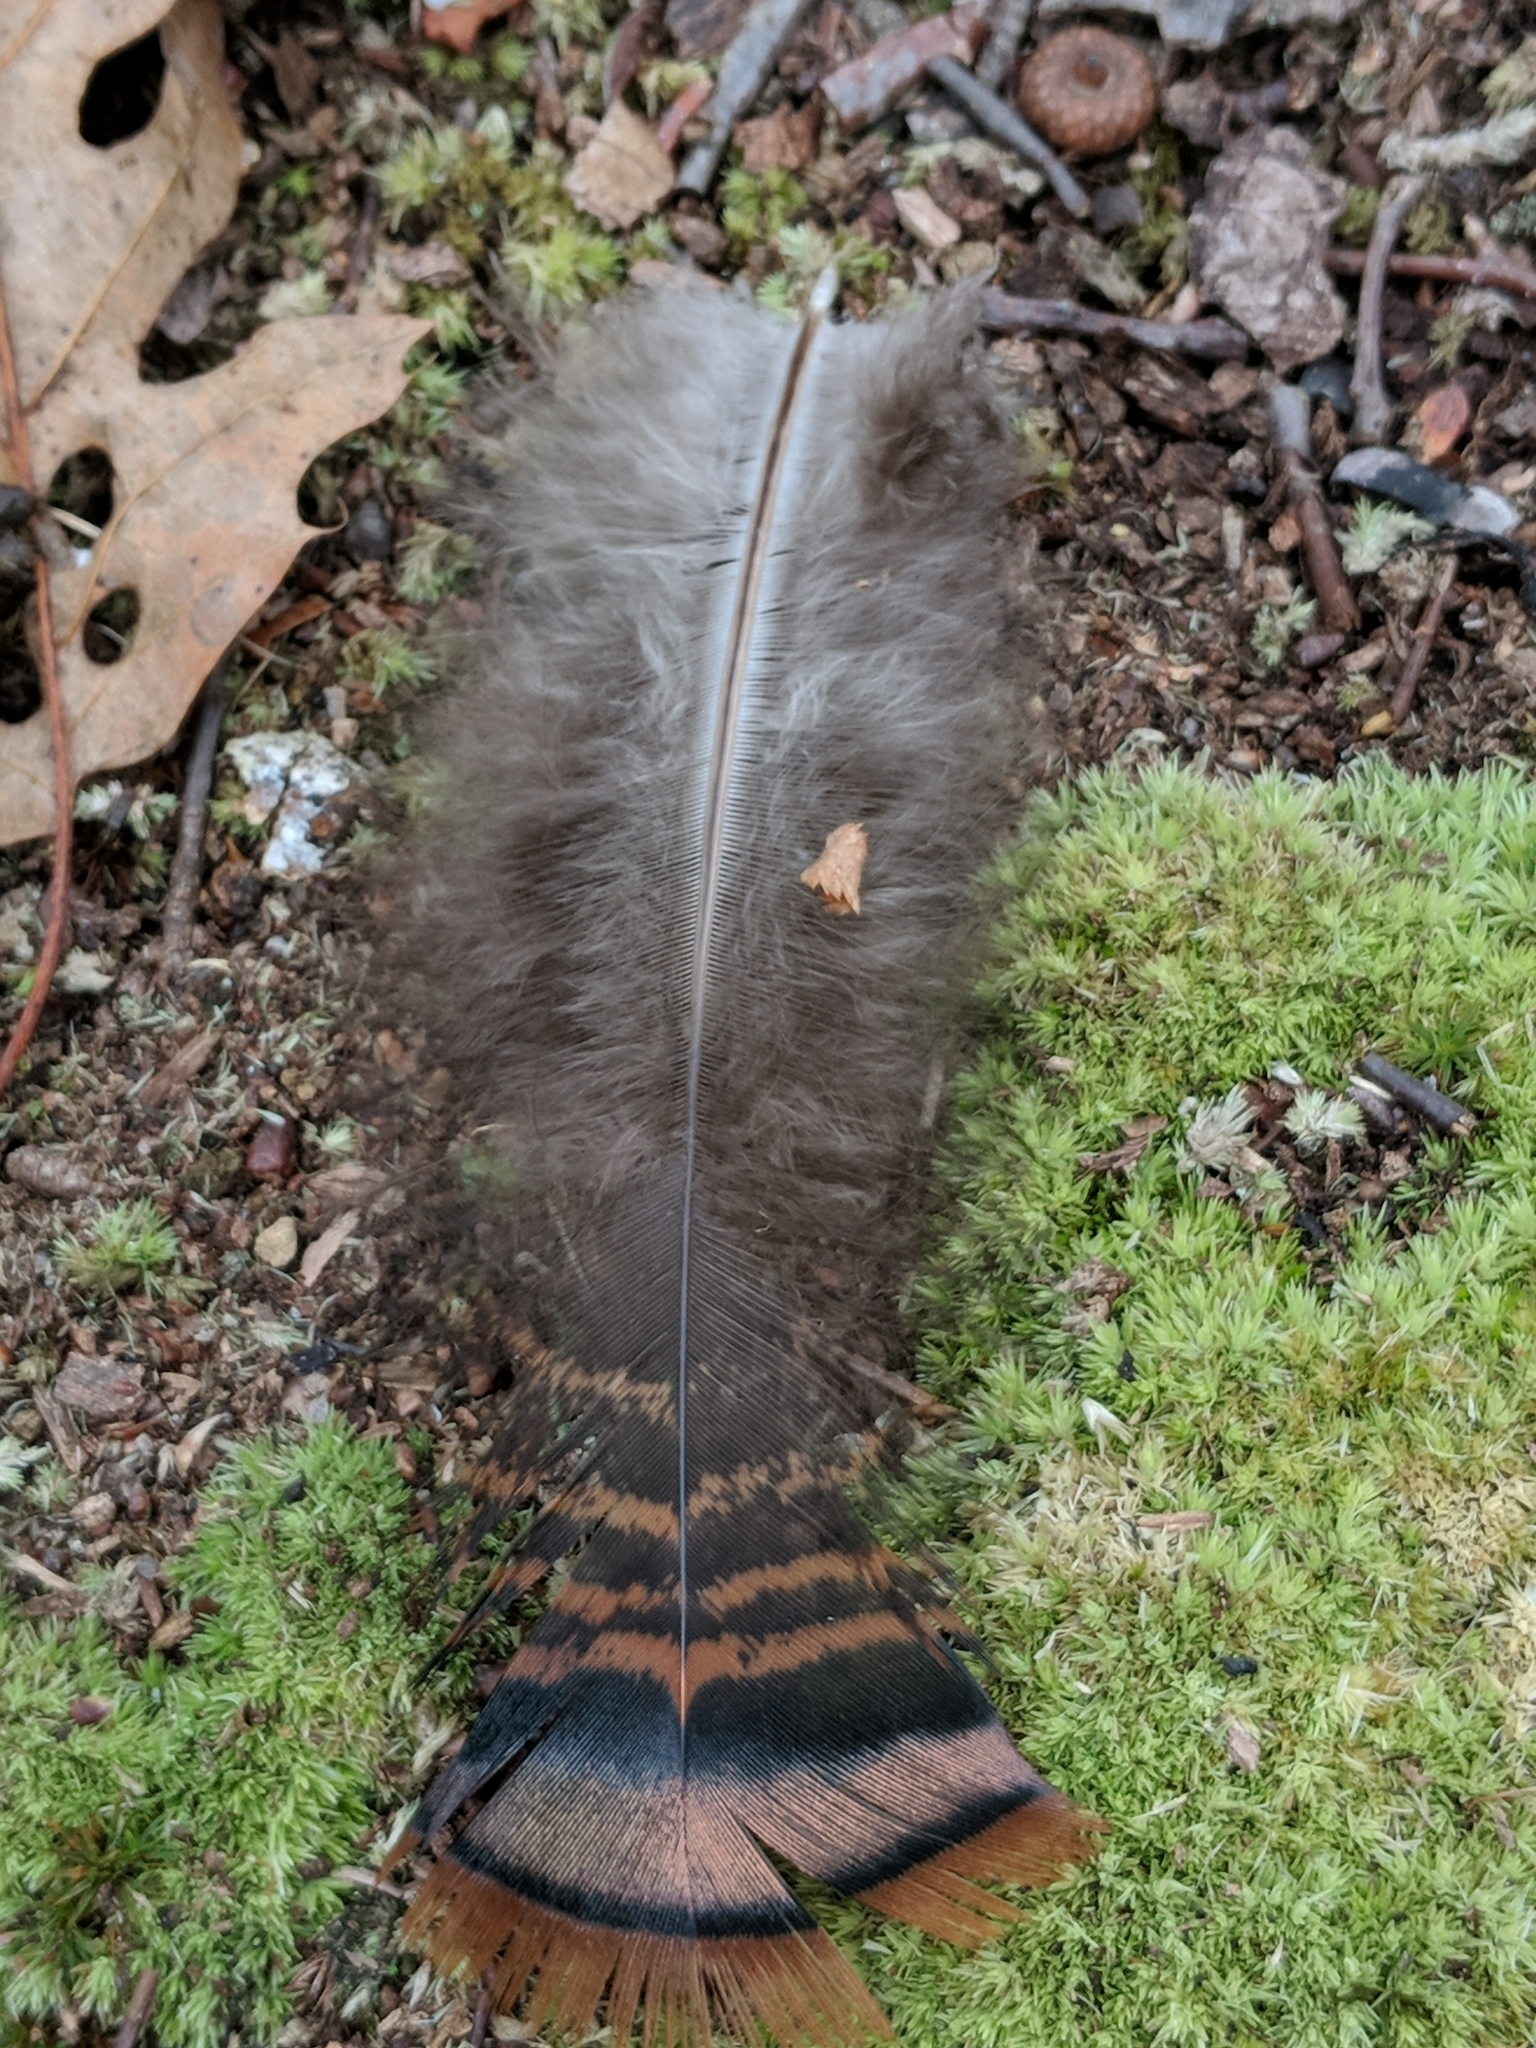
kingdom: Animalia
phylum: Chordata
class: Aves
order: Galliformes
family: Phasianidae
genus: Meleagris
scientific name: Meleagris gallopavo
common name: Wild turkey
